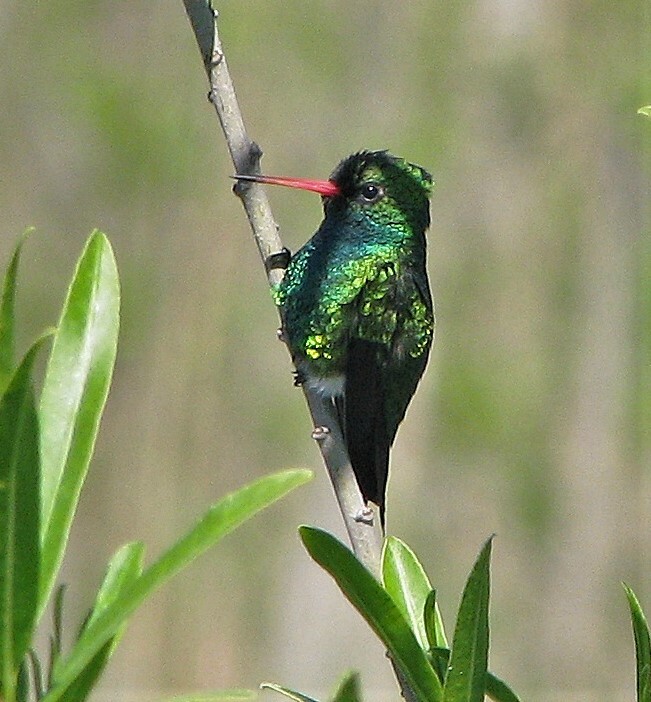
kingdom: Animalia
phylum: Chordata
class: Aves
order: Apodiformes
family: Trochilidae
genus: Chlorostilbon
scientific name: Chlorostilbon lucidus
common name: Glittering-bellied emerald
